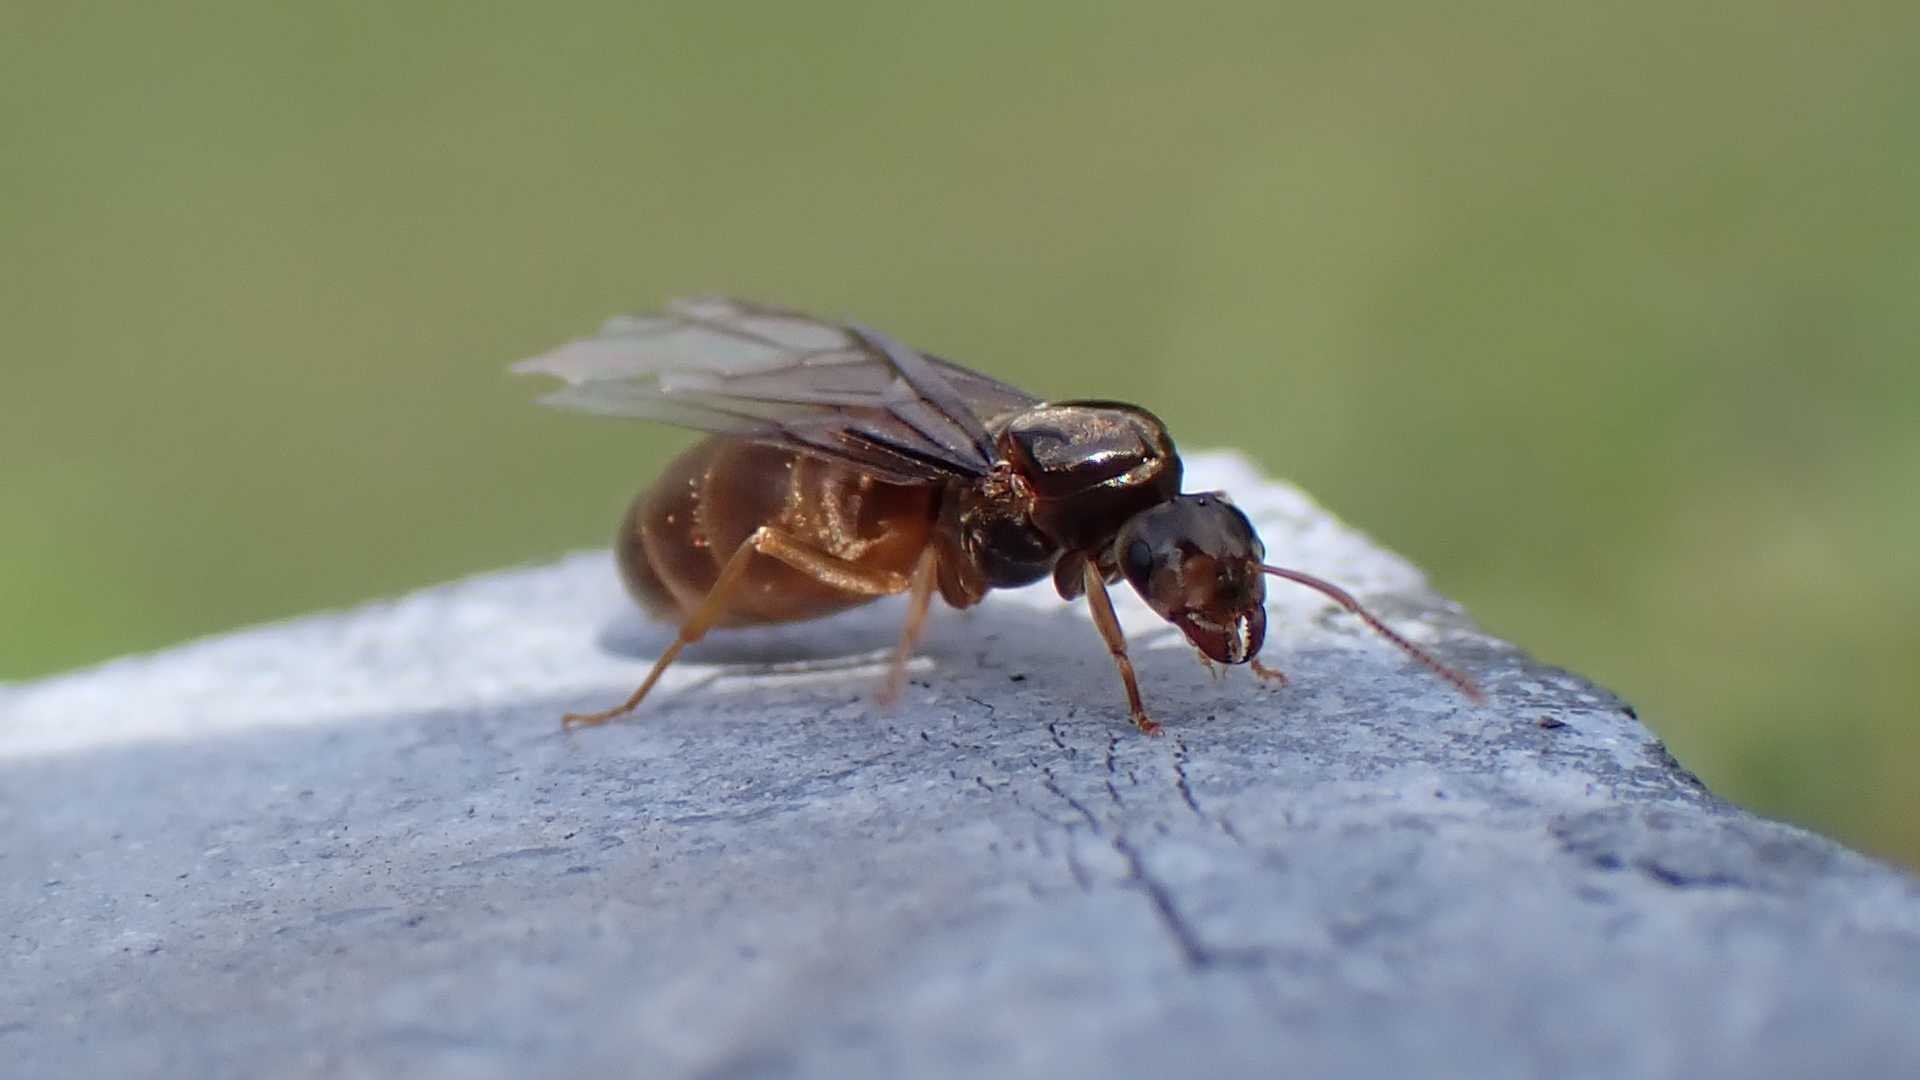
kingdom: Animalia
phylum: Arthropoda
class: Insecta
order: Hymenoptera
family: Formicidae
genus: Lasius
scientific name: Lasius flavus
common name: Blond field ant
